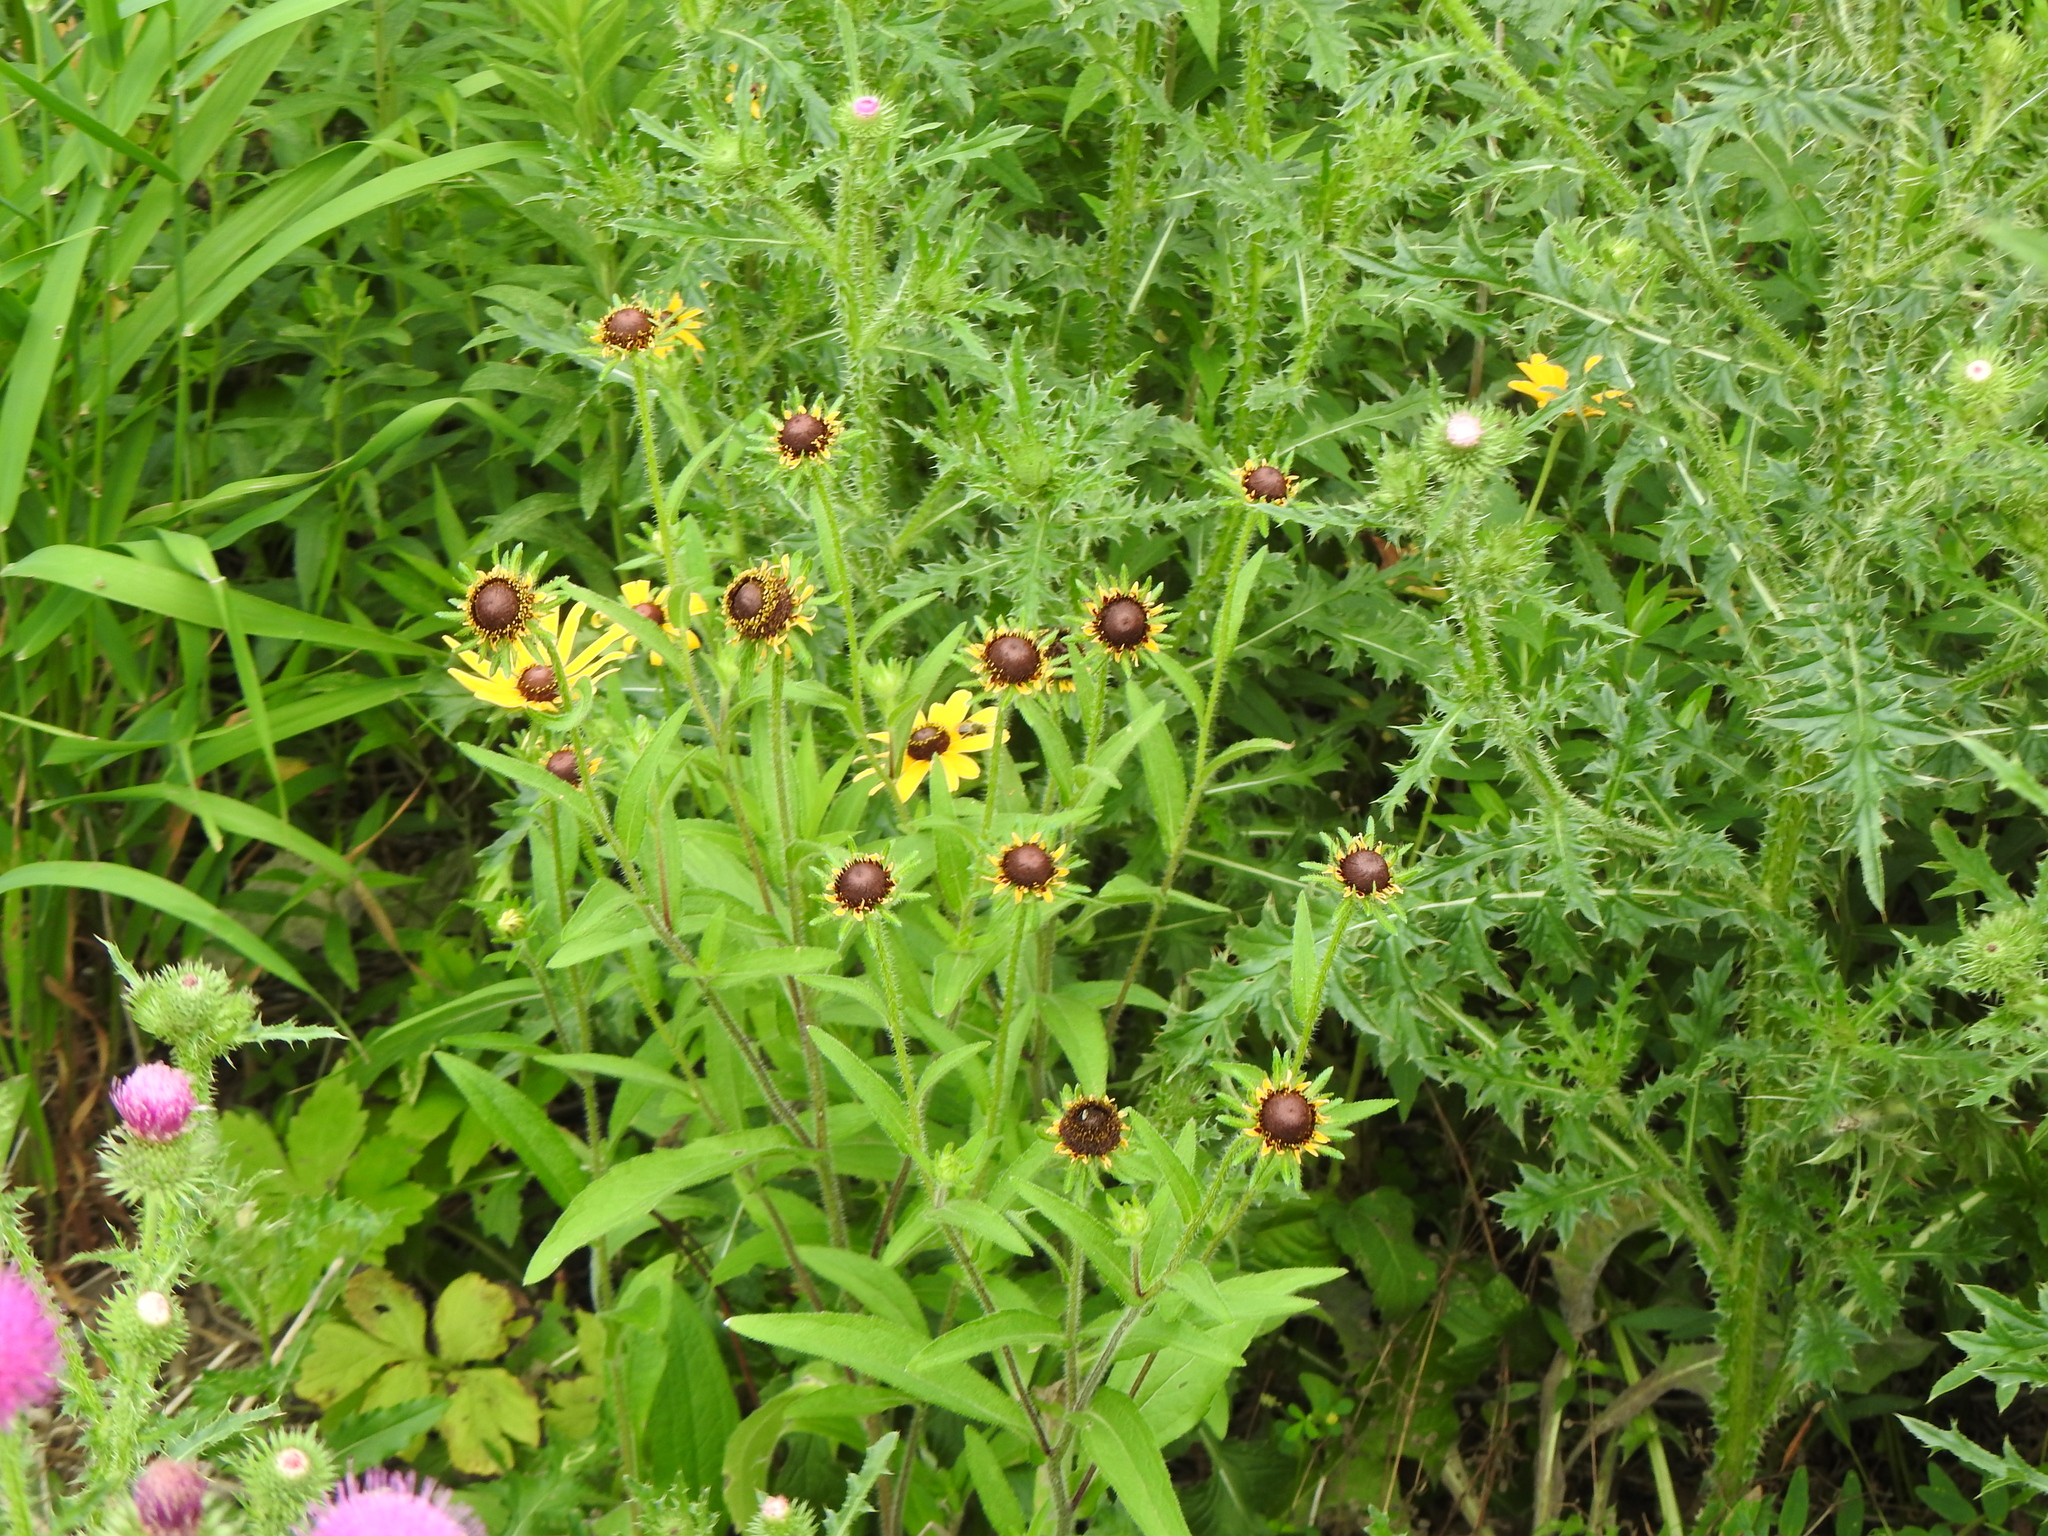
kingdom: Plantae
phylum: Tracheophyta
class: Magnoliopsida
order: Asterales
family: Asteraceae
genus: Rudbeckia
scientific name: Rudbeckia hirta
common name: Black-eyed-susan
